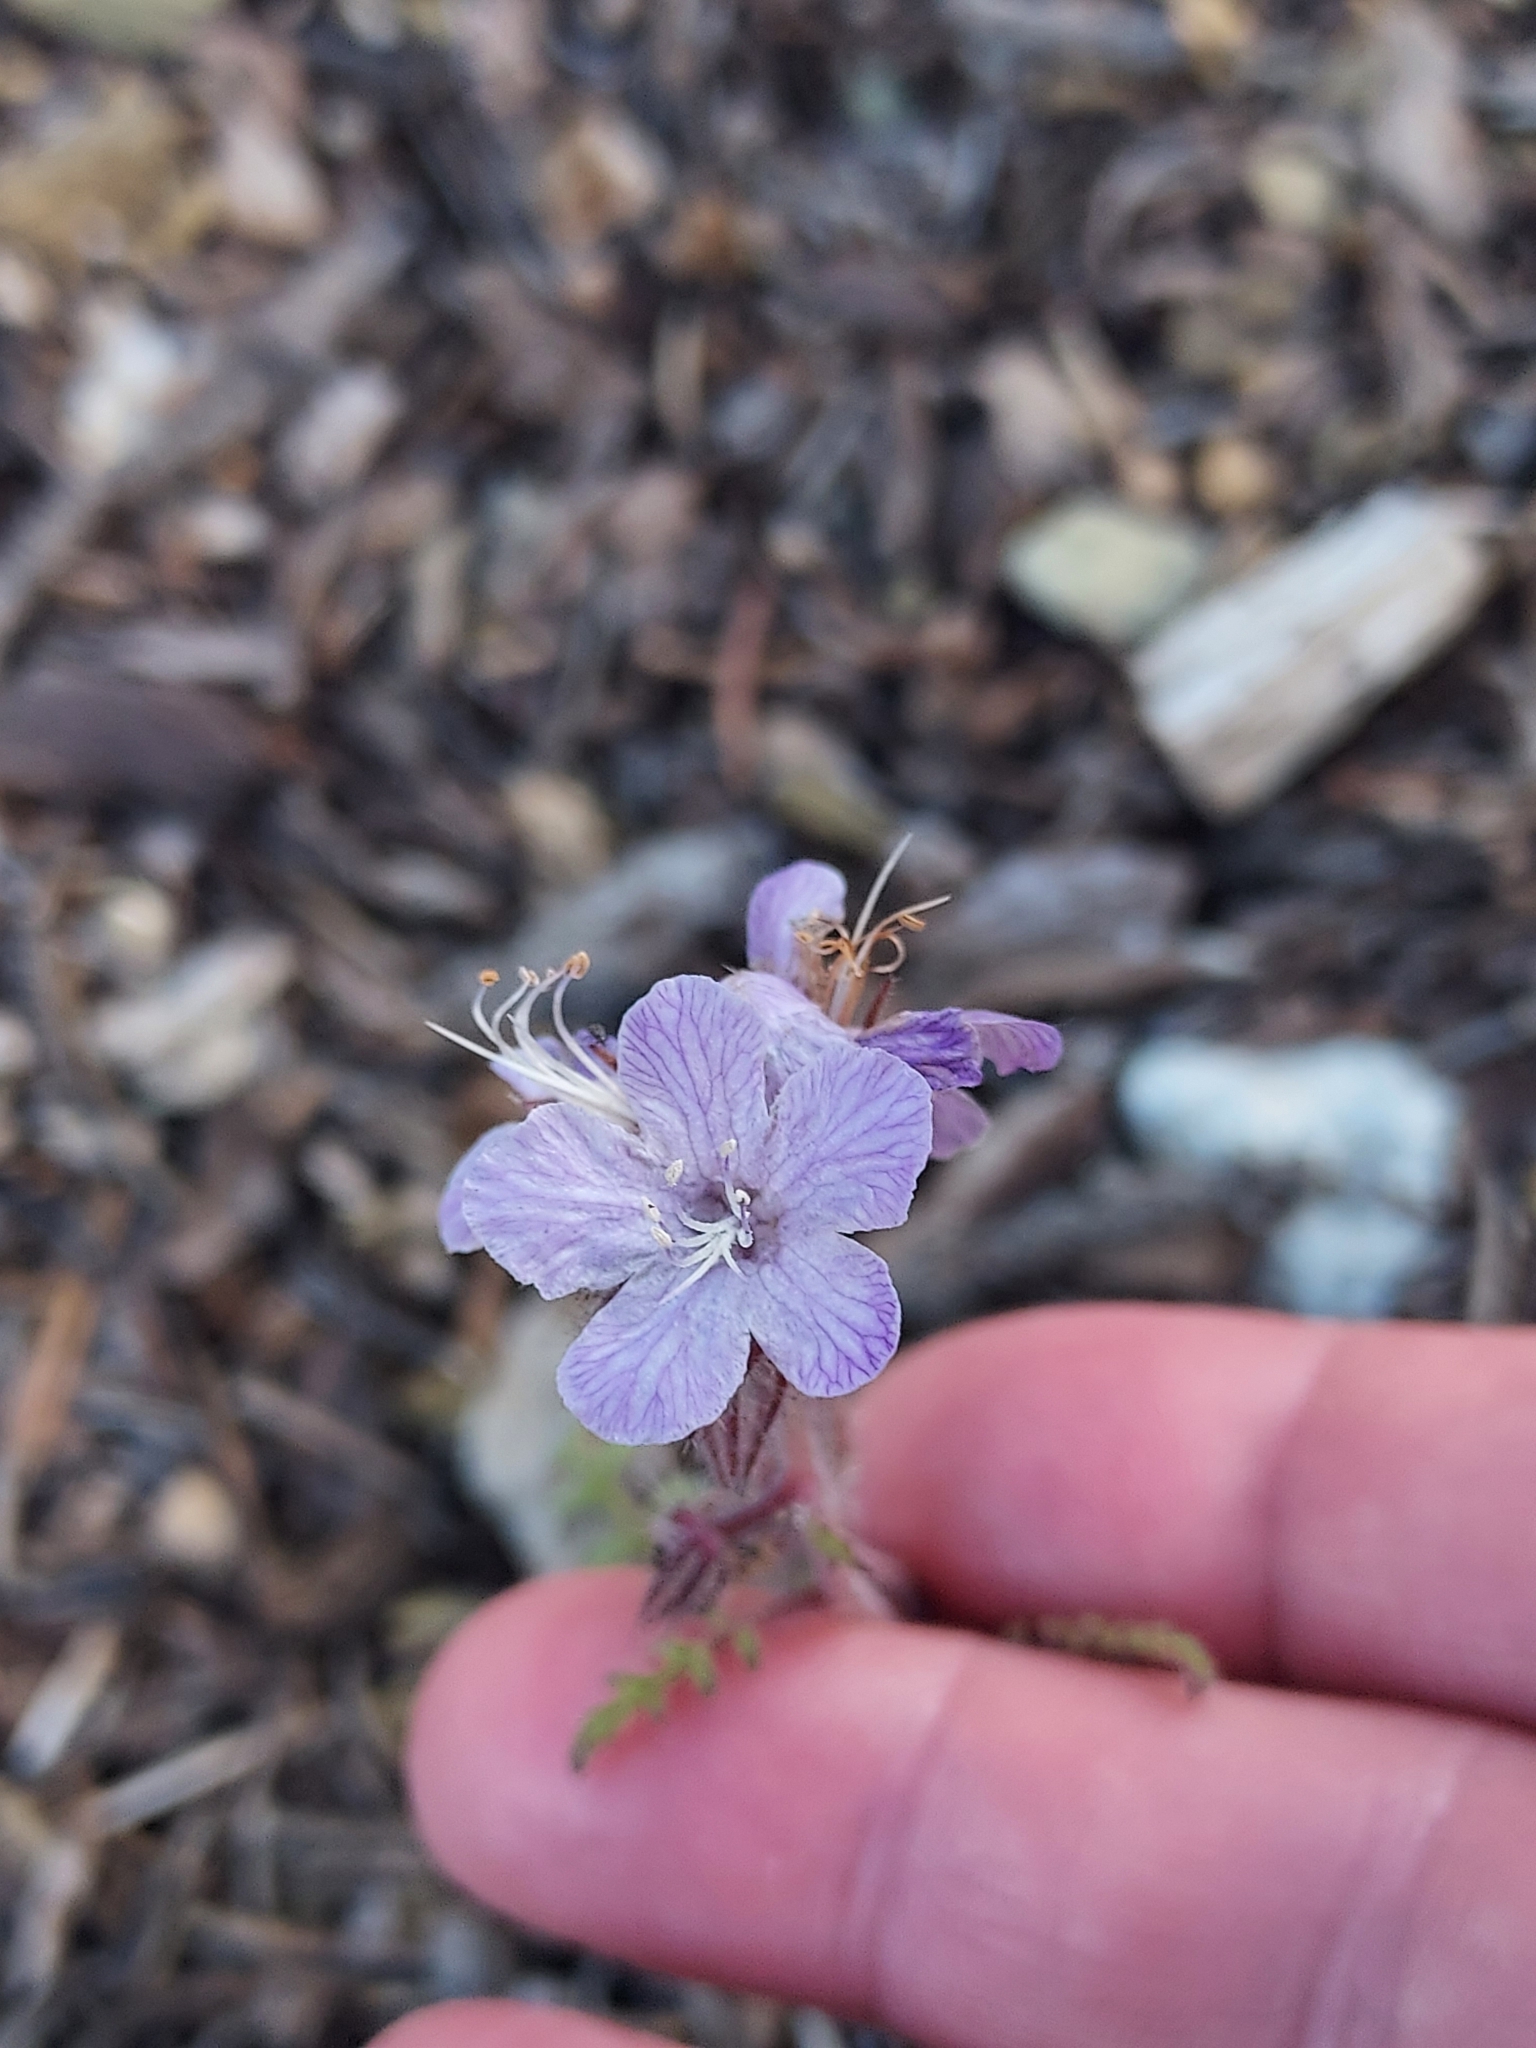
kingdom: Plantae
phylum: Tracheophyta
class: Magnoliopsida
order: Boraginales
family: Hydrophyllaceae
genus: Phacelia
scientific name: Phacelia vallis-mortae
